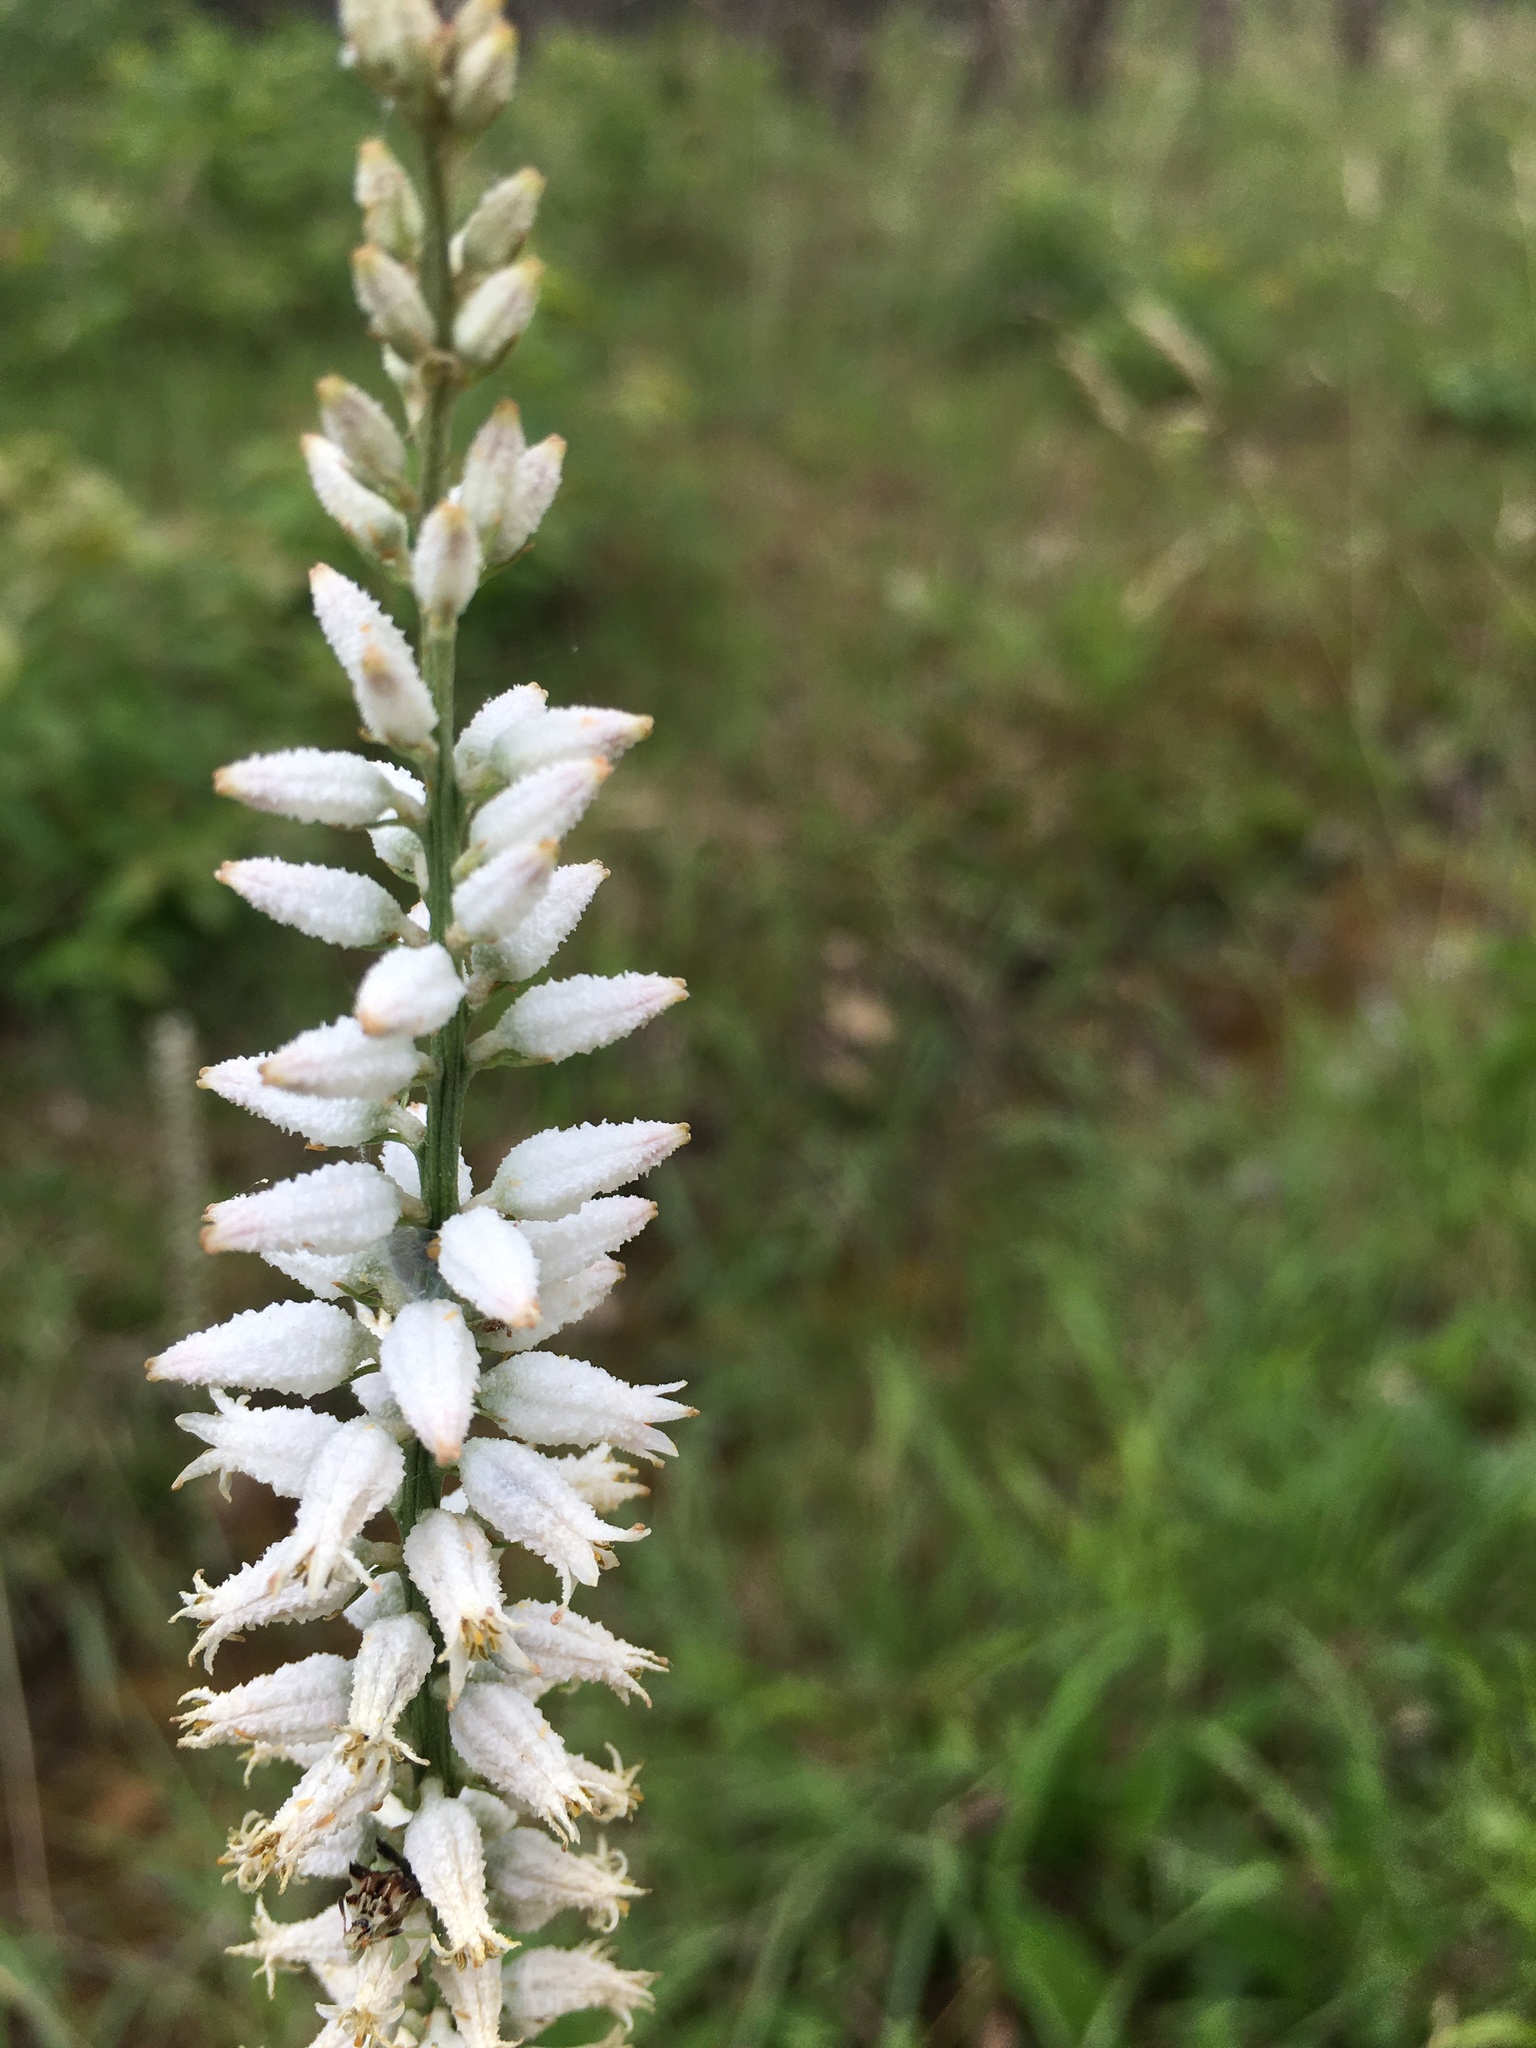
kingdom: Plantae
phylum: Tracheophyta
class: Liliopsida
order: Dioscoreales
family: Nartheciaceae
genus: Aletris
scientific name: Aletris farinosa
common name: Colicroot
